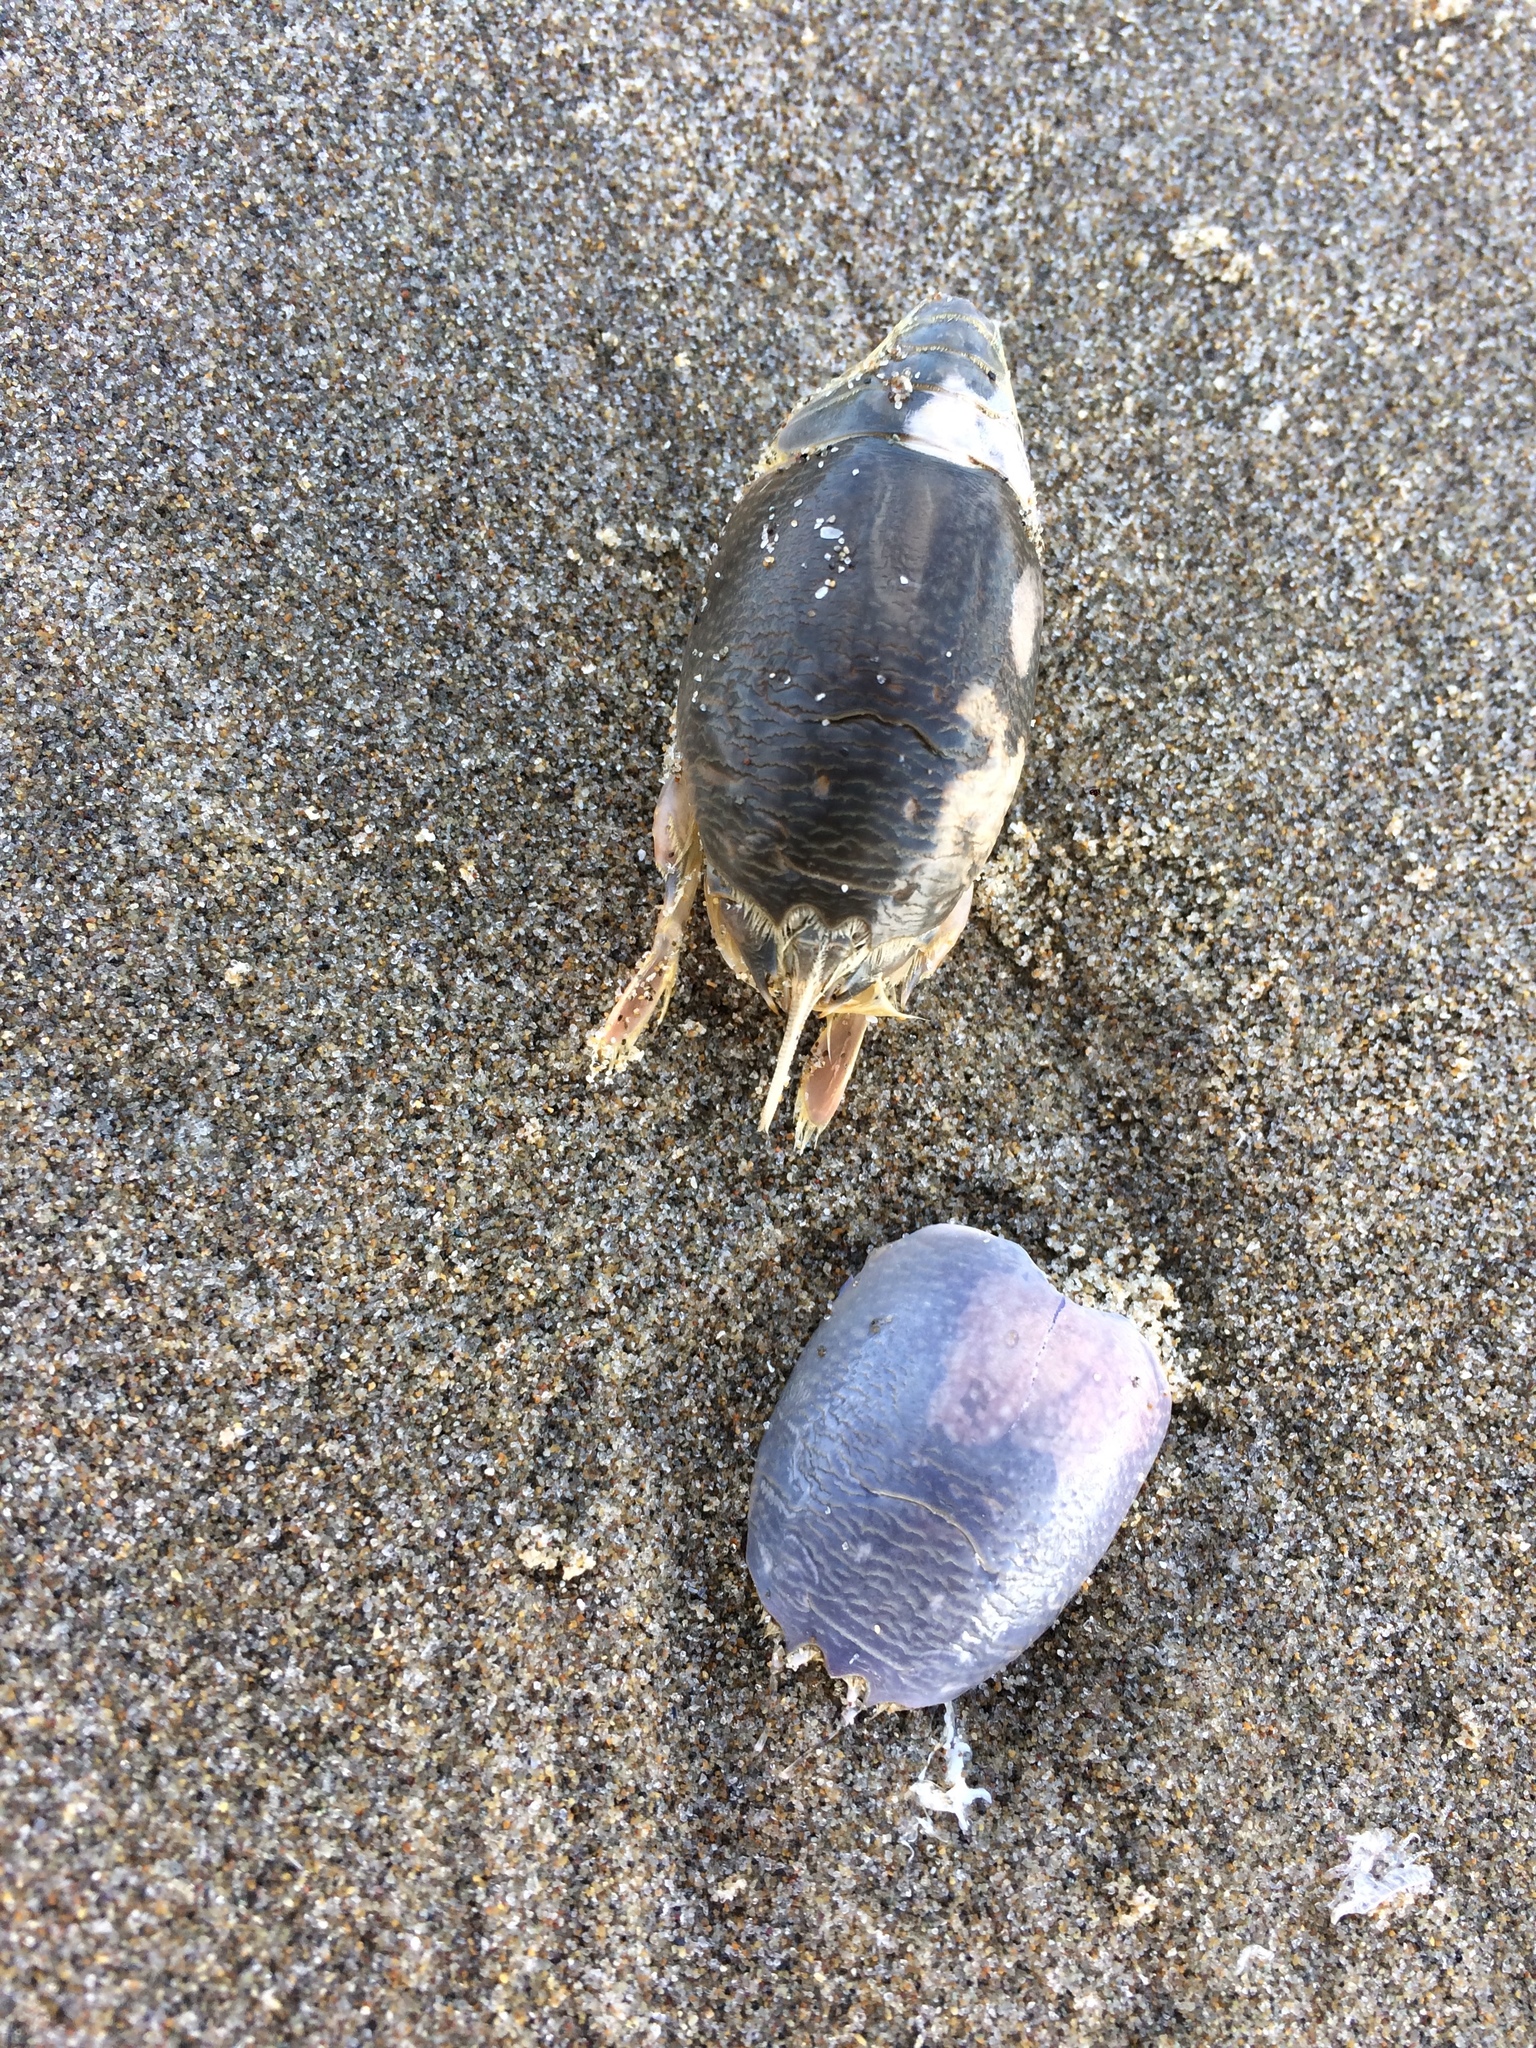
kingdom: Animalia
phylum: Arthropoda
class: Malacostraca
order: Decapoda
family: Hippidae
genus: Emerita
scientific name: Emerita analoga
